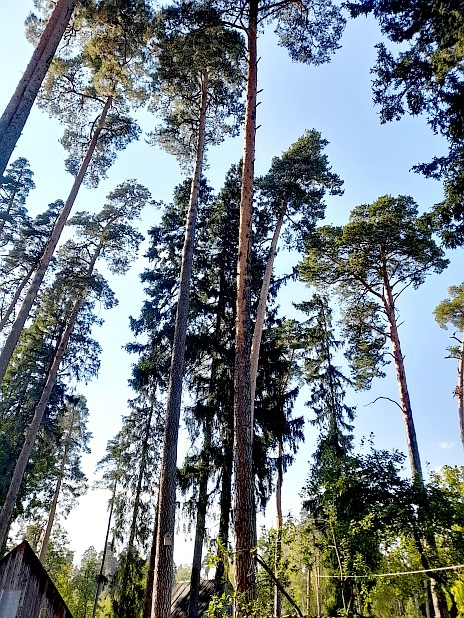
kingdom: Plantae
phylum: Tracheophyta
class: Pinopsida
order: Pinales
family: Pinaceae
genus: Pinus
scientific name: Pinus sylvestris
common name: Scots pine
